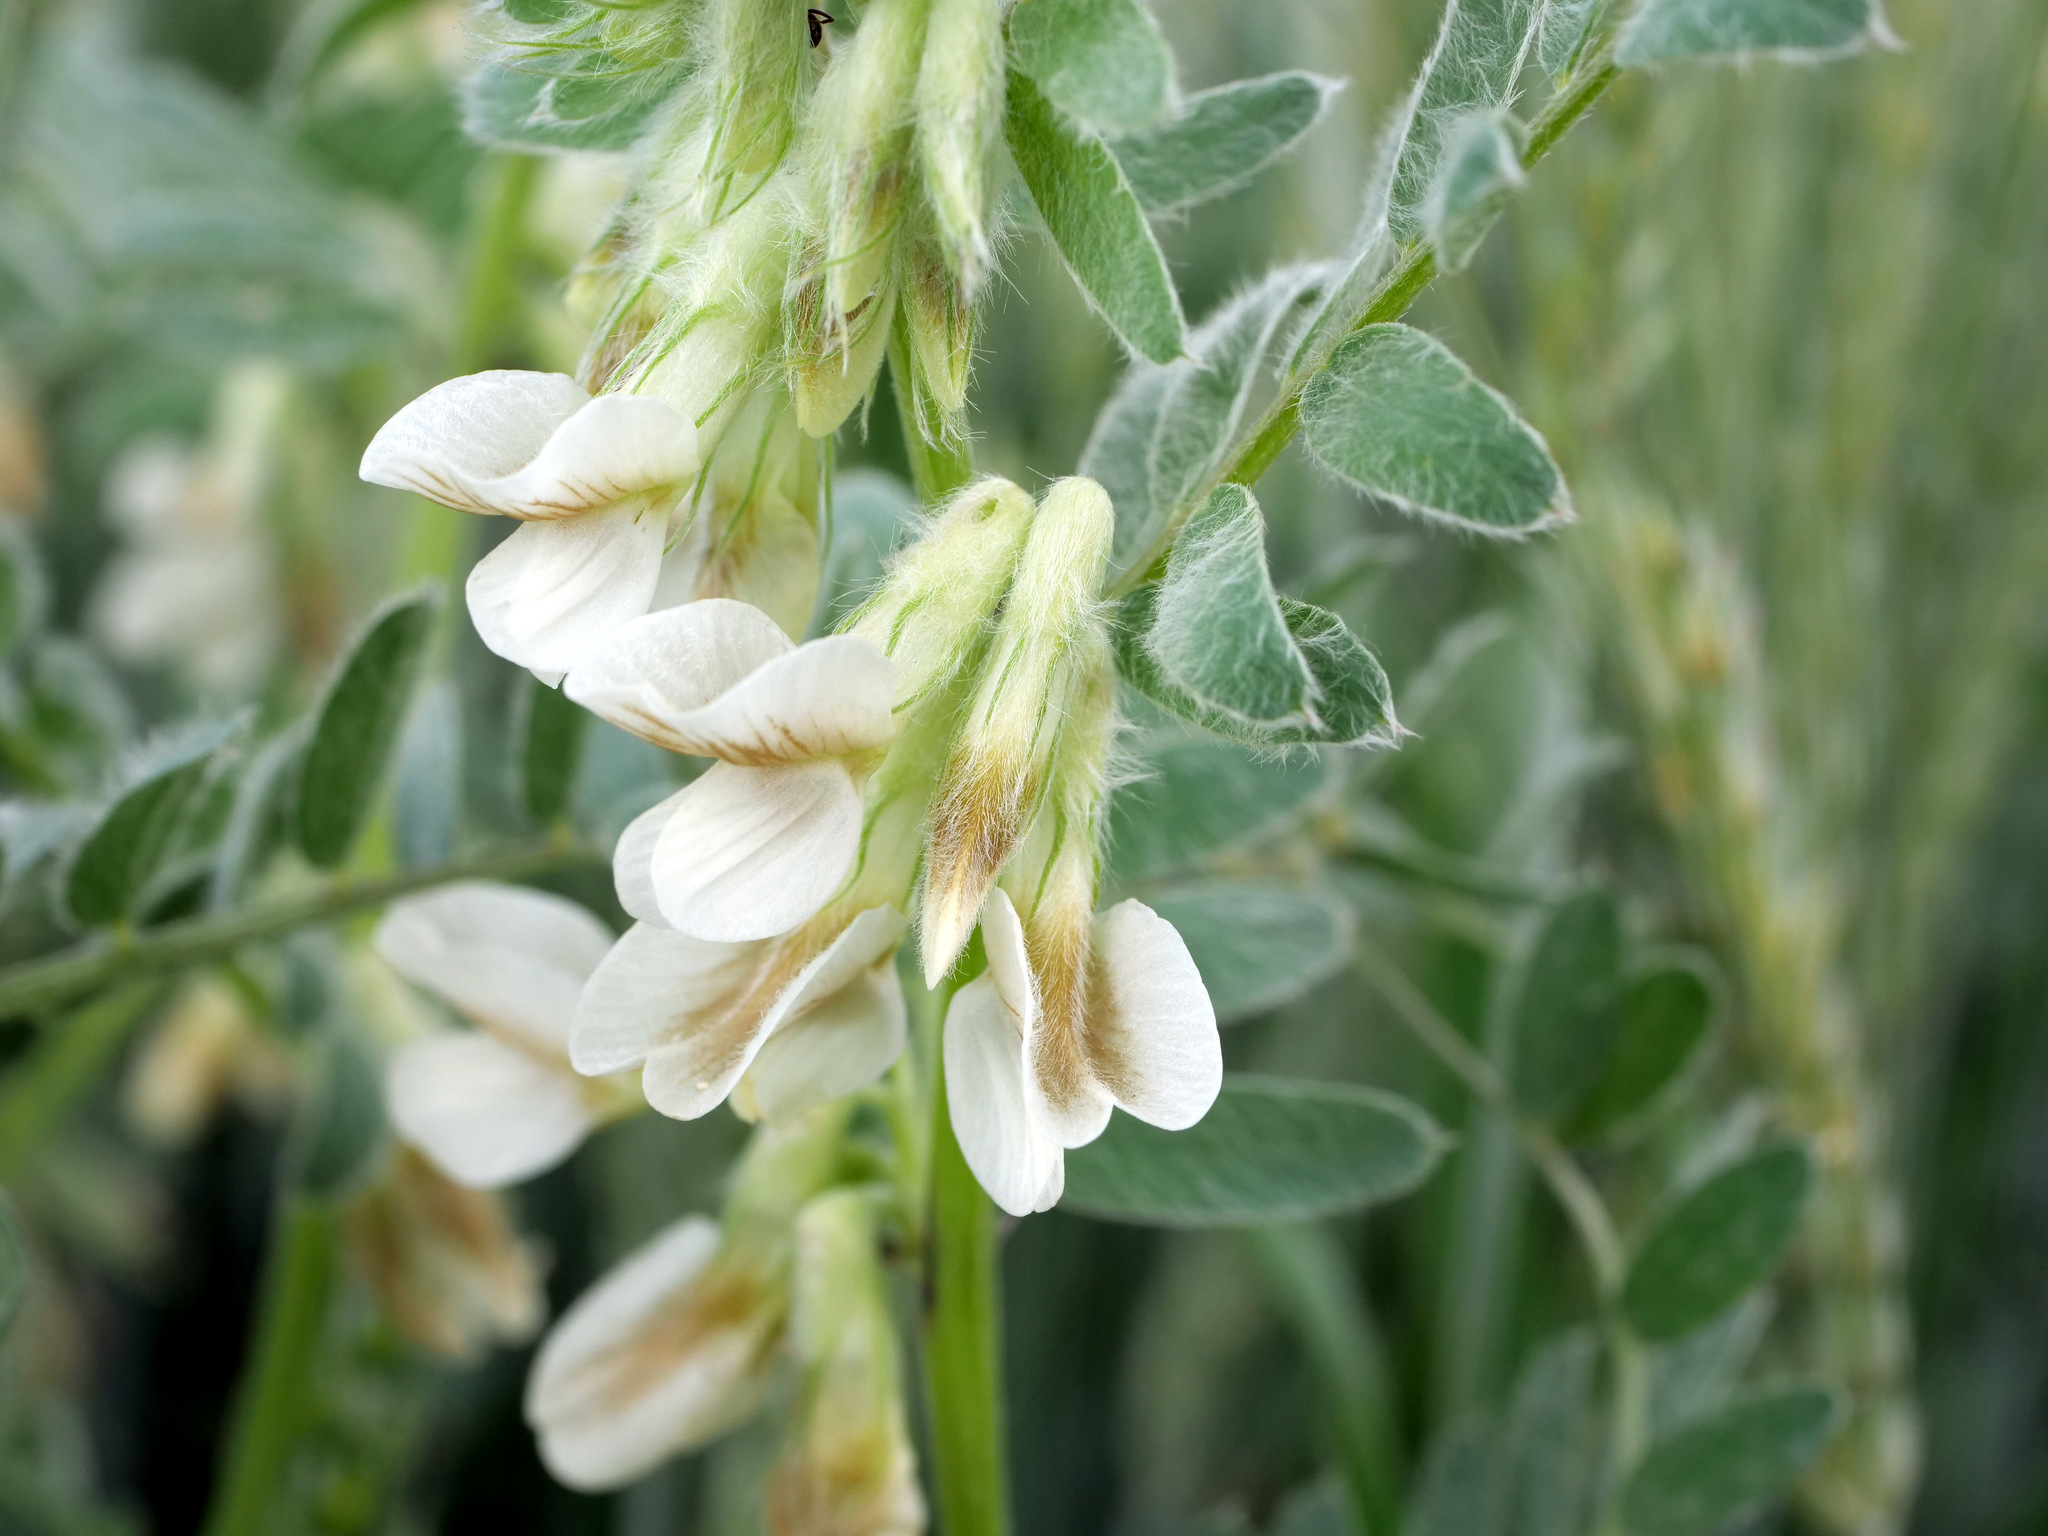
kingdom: Plantae
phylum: Tracheophyta
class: Magnoliopsida
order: Fabales
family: Fabaceae
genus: Vicia
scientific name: Vicia pannonica
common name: Hungarian vetch
